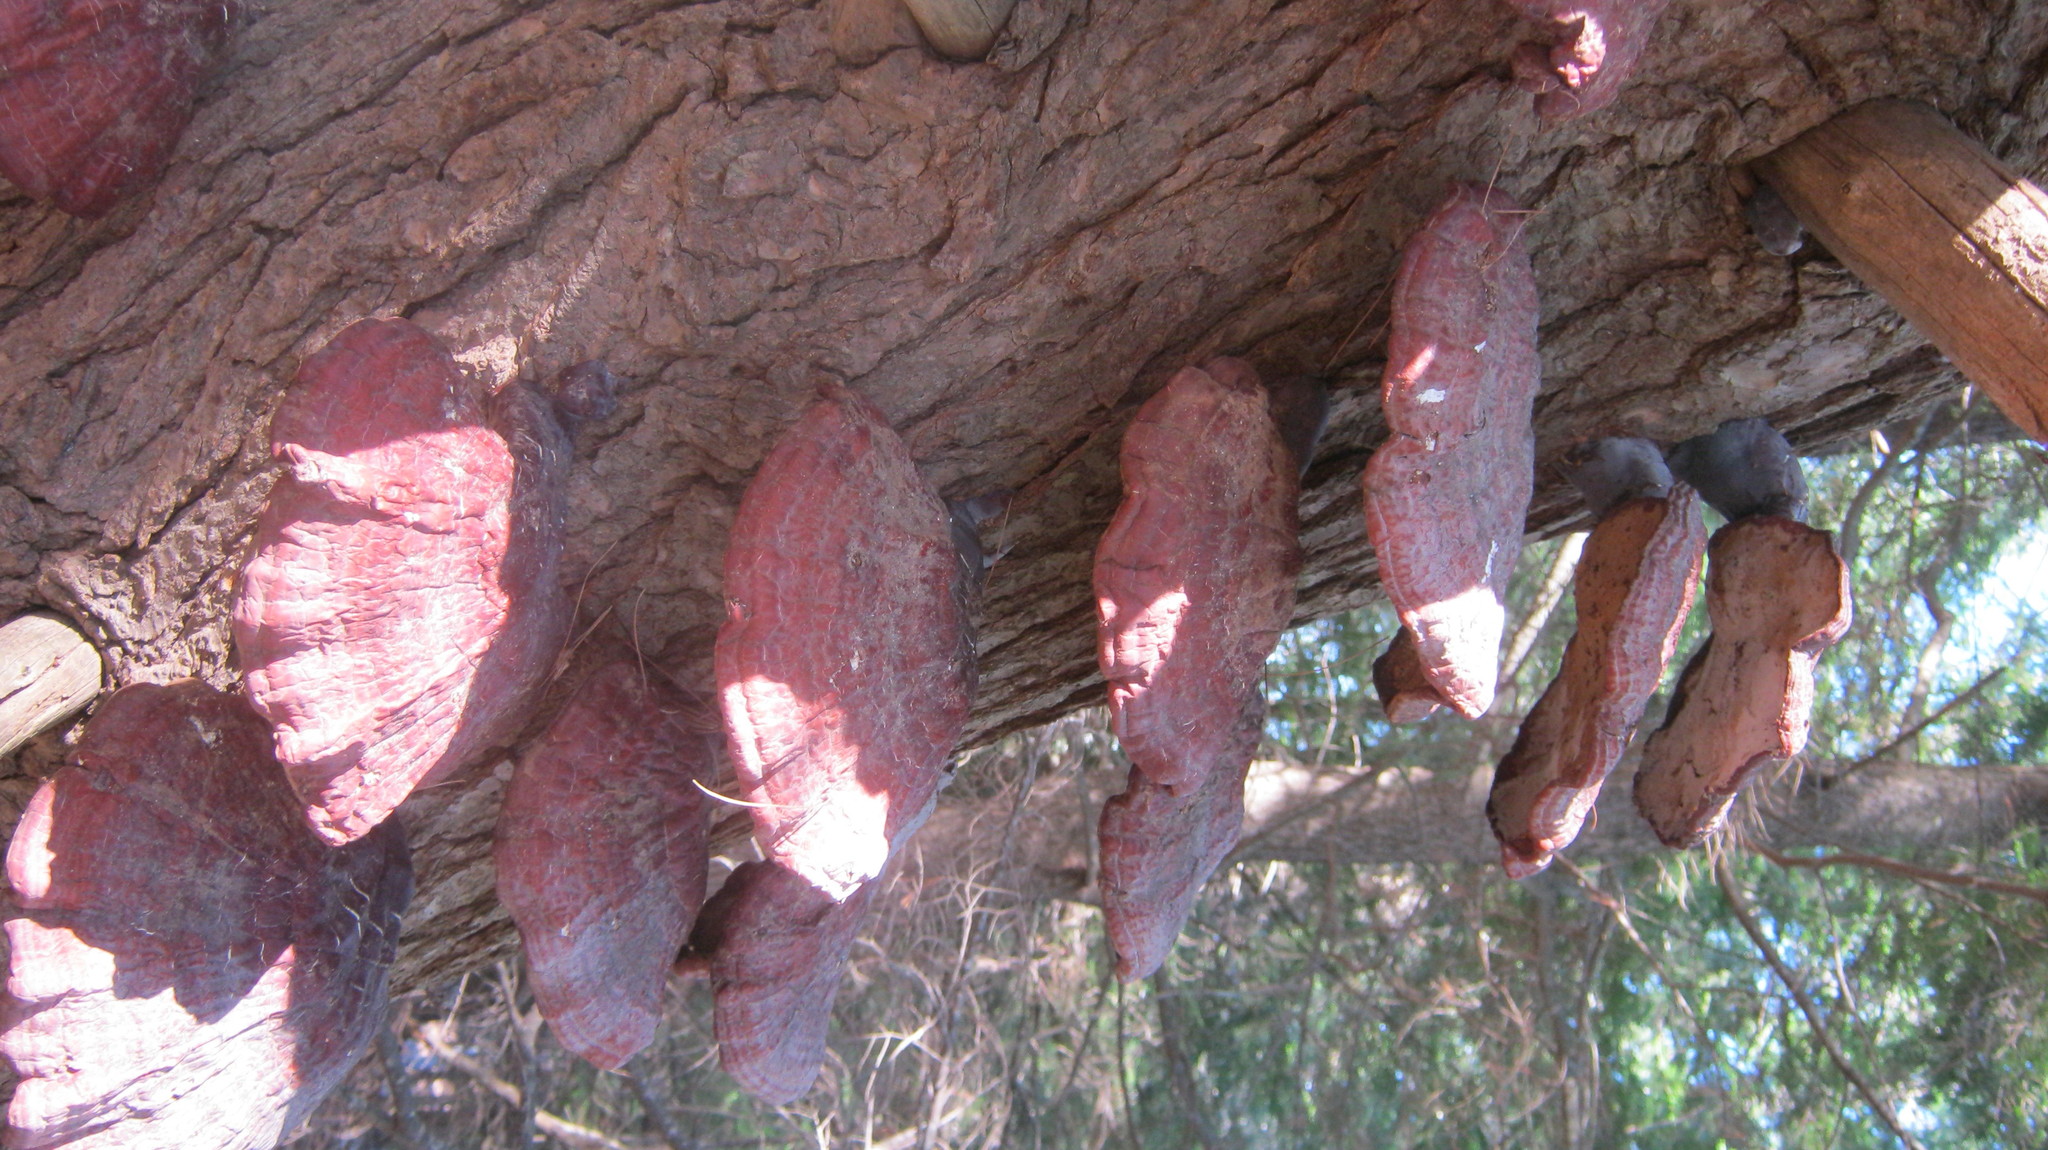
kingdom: Fungi
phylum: Basidiomycota
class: Agaricomycetes
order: Polyporales
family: Polyporaceae
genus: Ganoderma
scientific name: Ganoderma tsugae
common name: Hemlock varnish shelf
